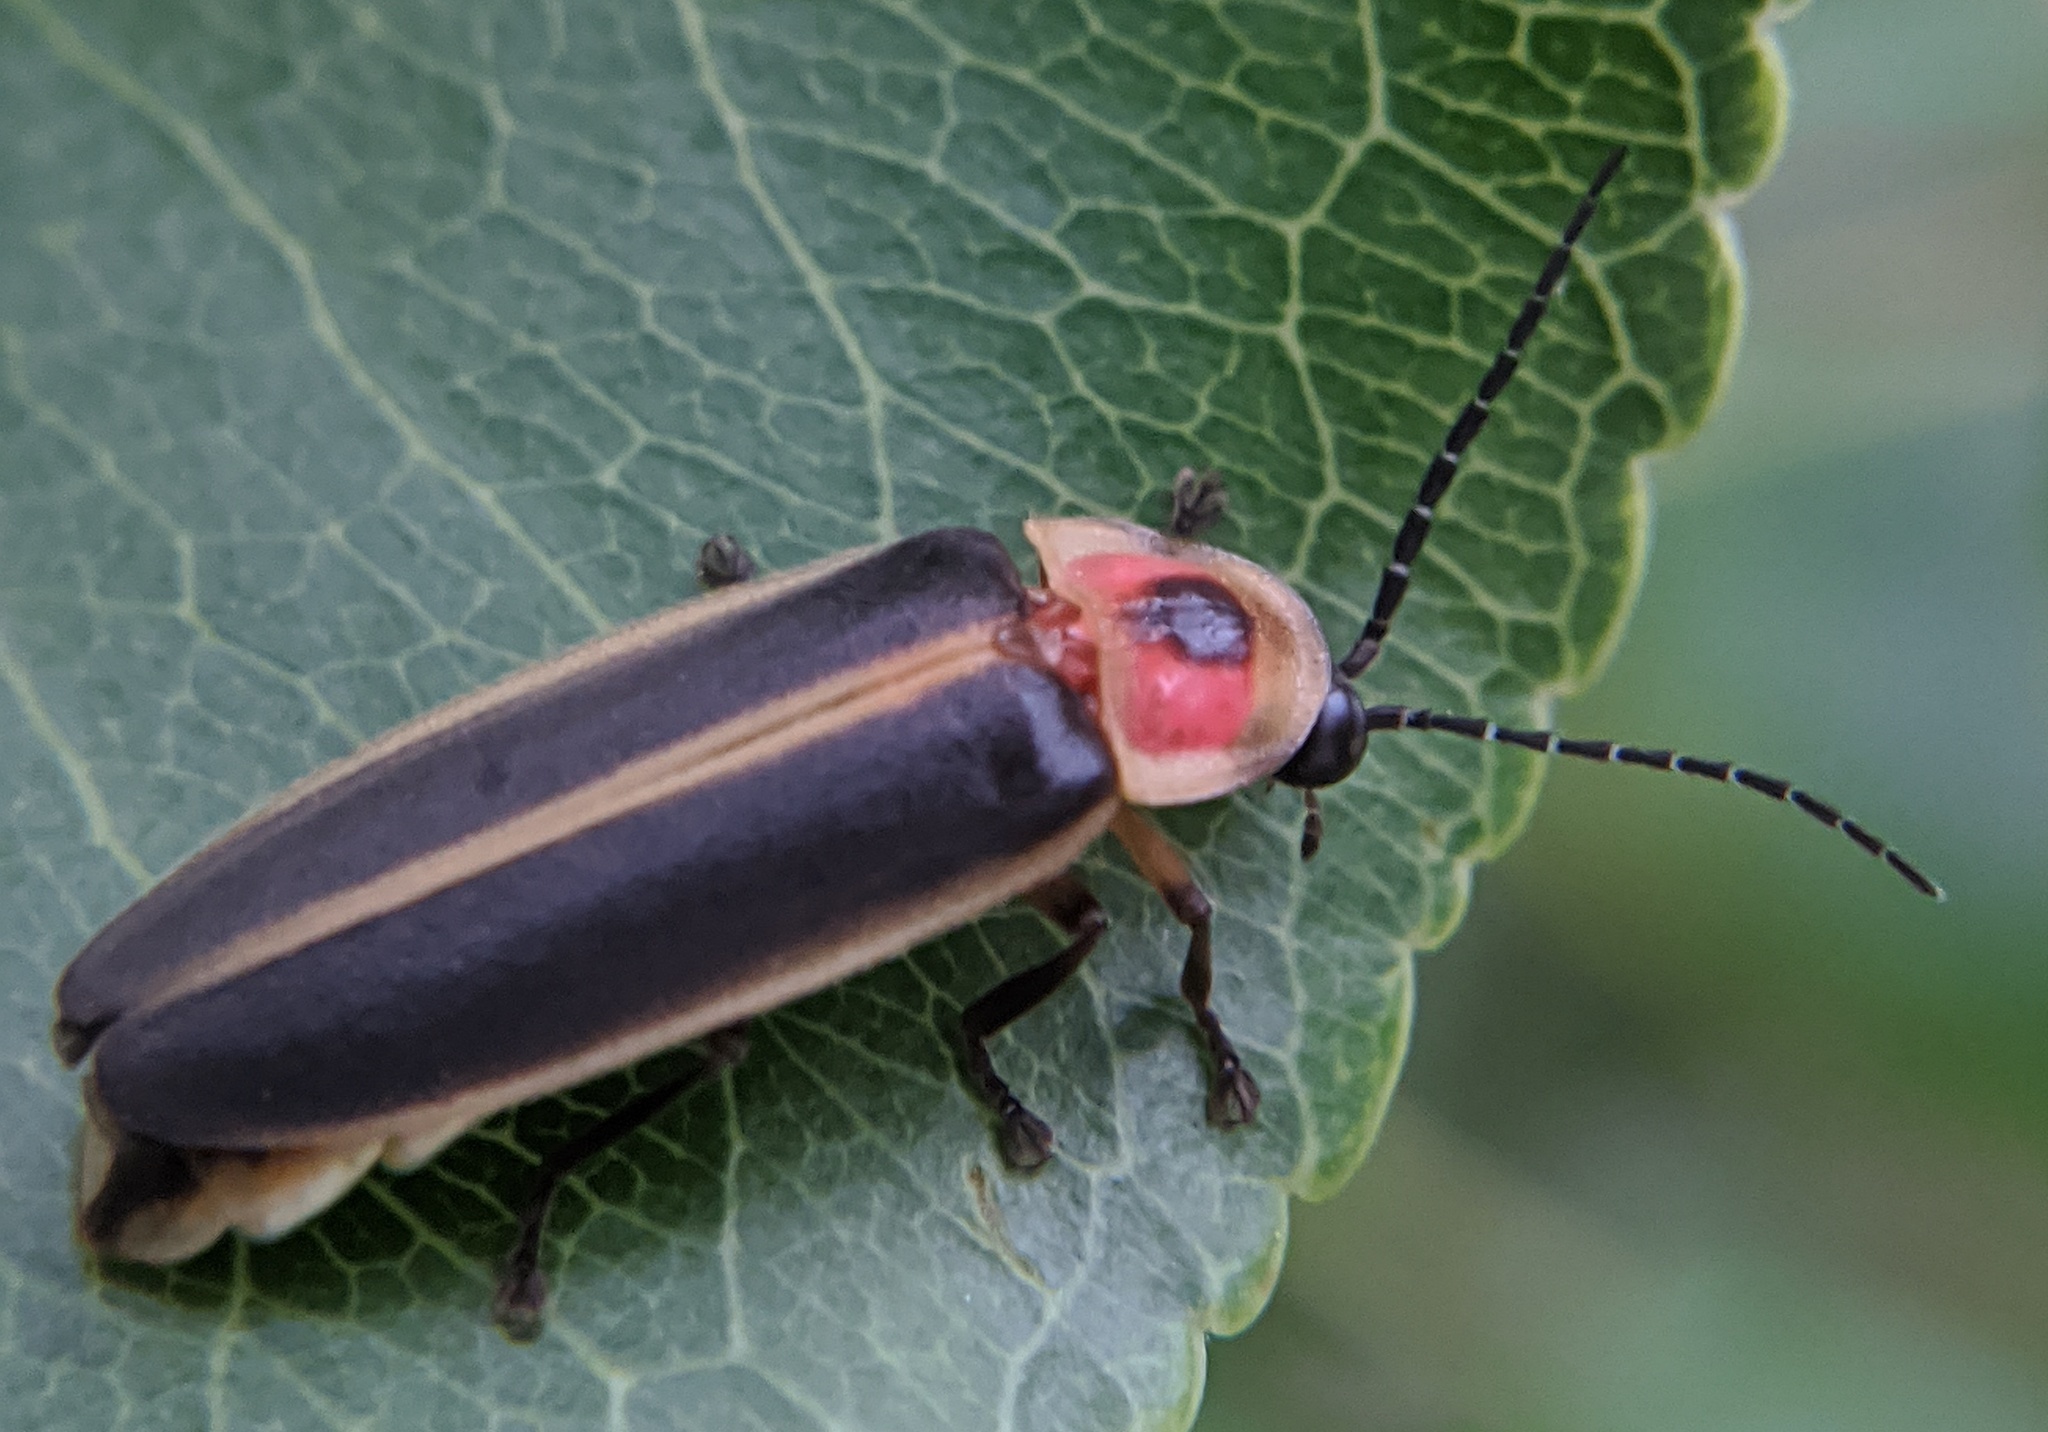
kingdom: Animalia
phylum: Arthropoda
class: Insecta
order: Coleoptera
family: Lampyridae
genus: Photinus
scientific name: Photinus pyralis
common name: Big dipper firefly
